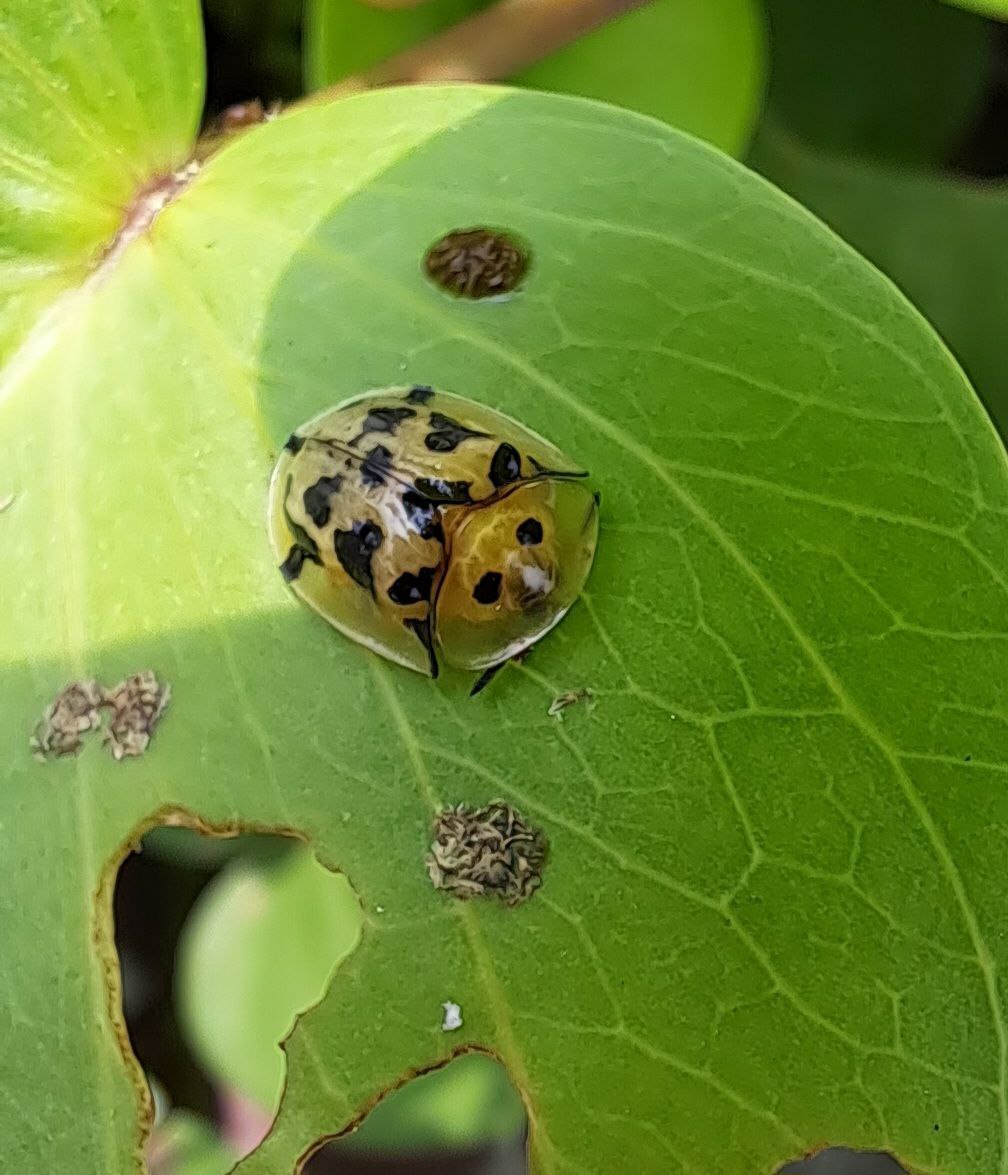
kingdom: Animalia
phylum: Arthropoda
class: Insecta
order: Coleoptera
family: Chrysomelidae
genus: Aspidimorpha
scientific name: Aspidimorpha deusta
